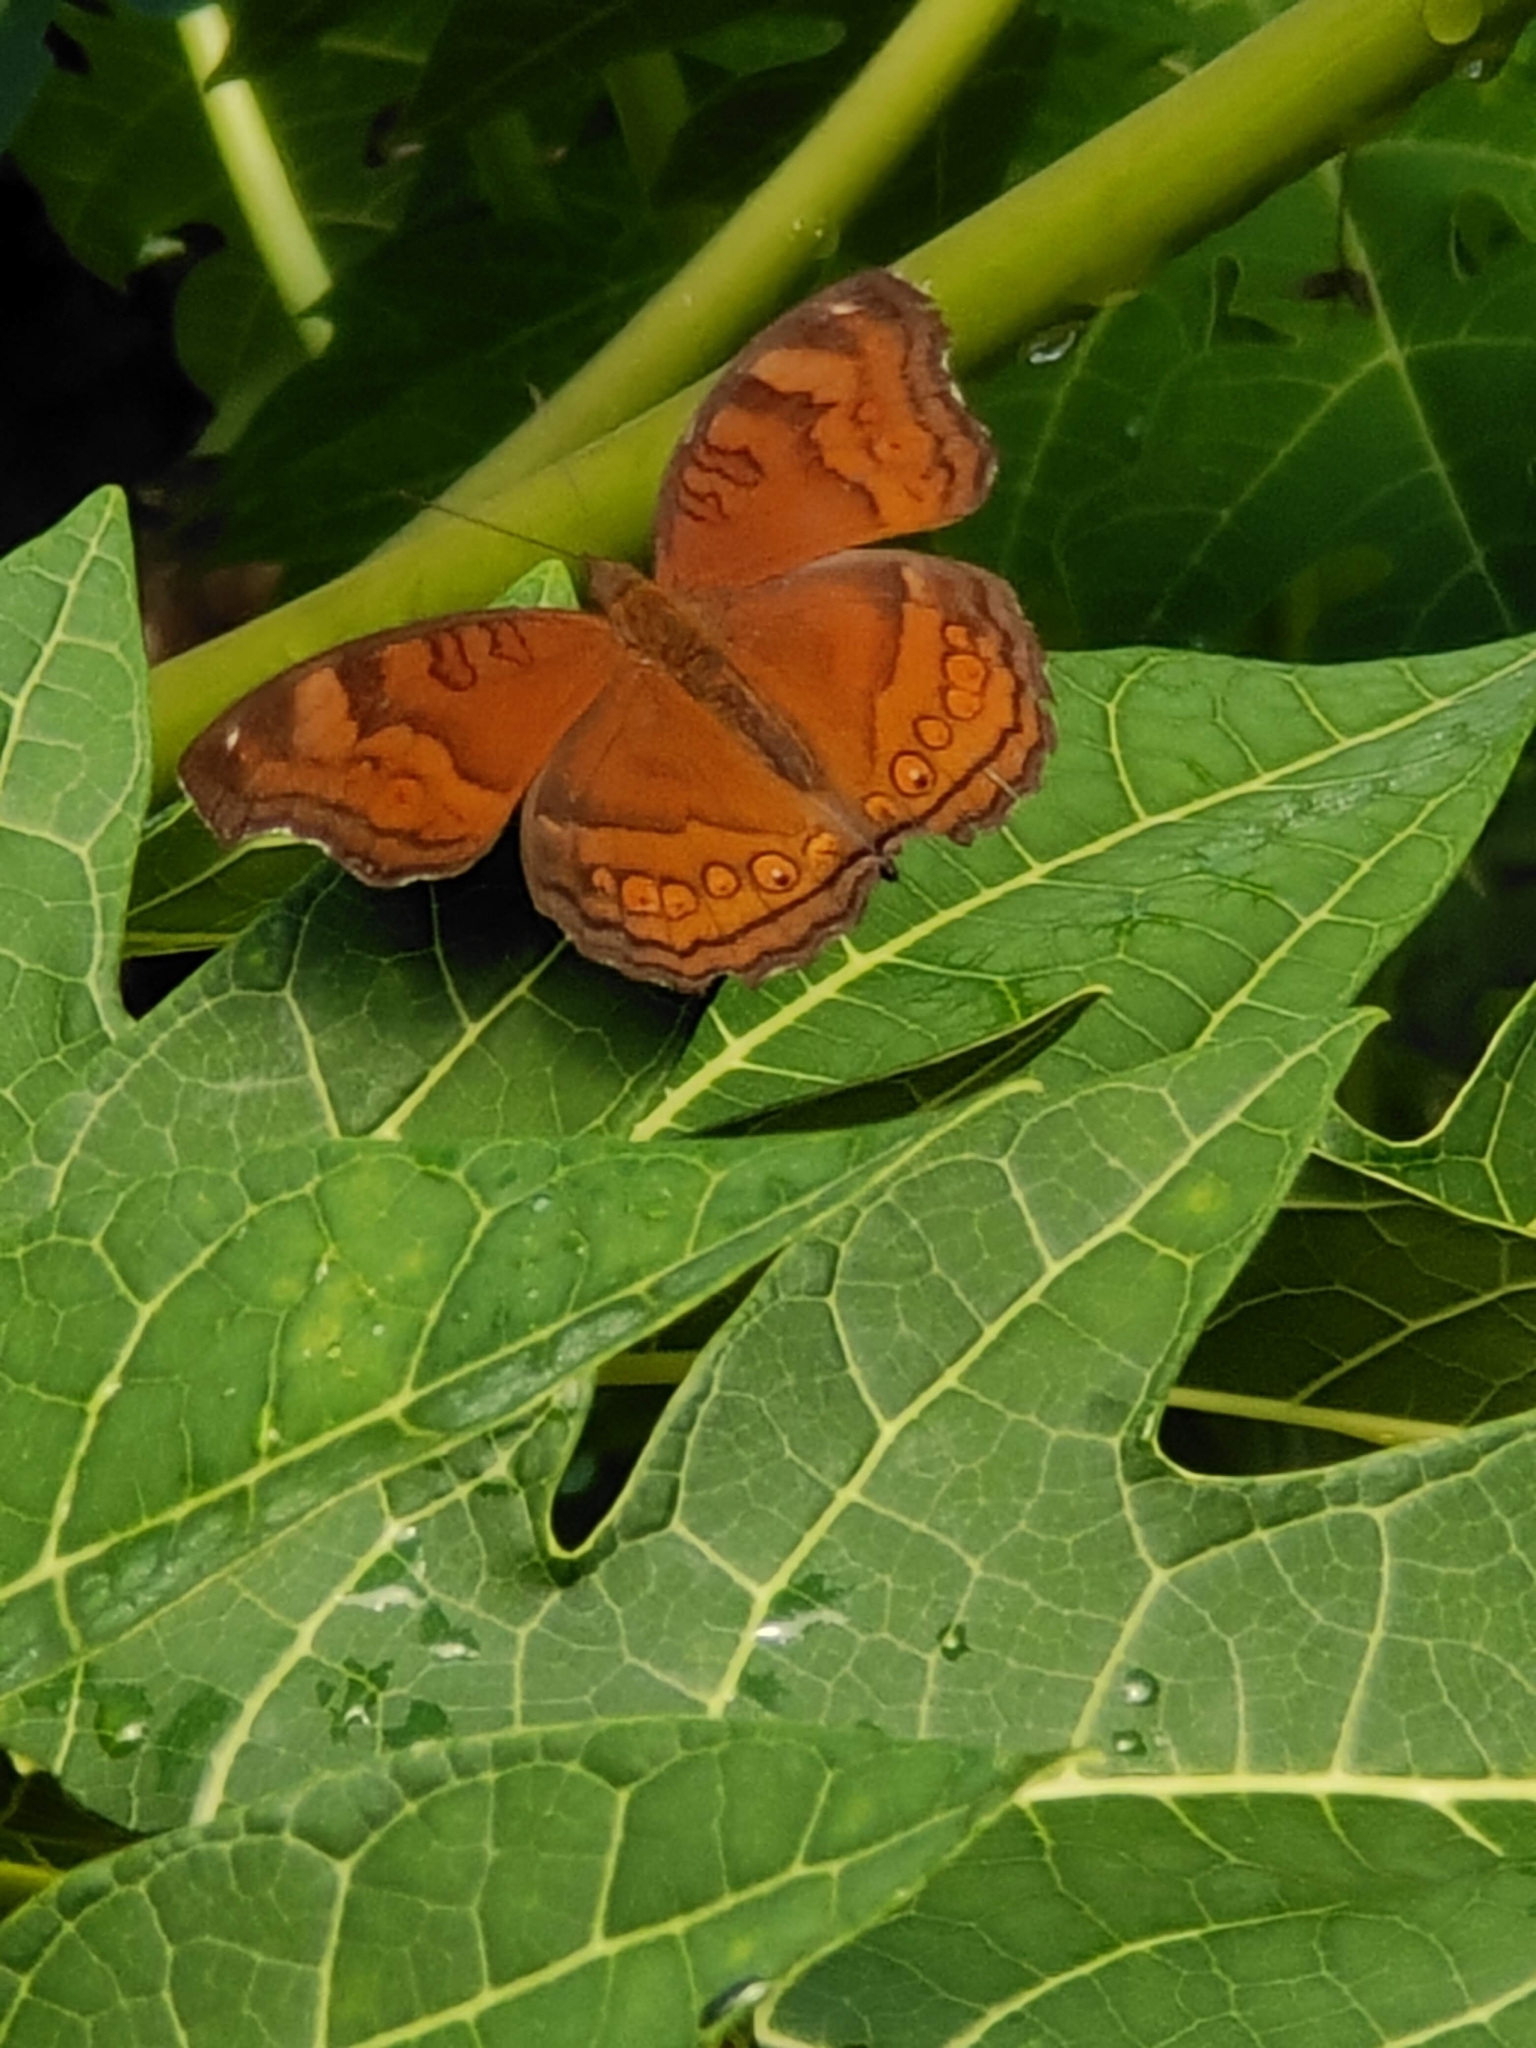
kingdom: Animalia
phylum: Arthropoda
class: Insecta
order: Lepidoptera
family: Nymphalidae
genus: Junonia
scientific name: Junonia hedonia
